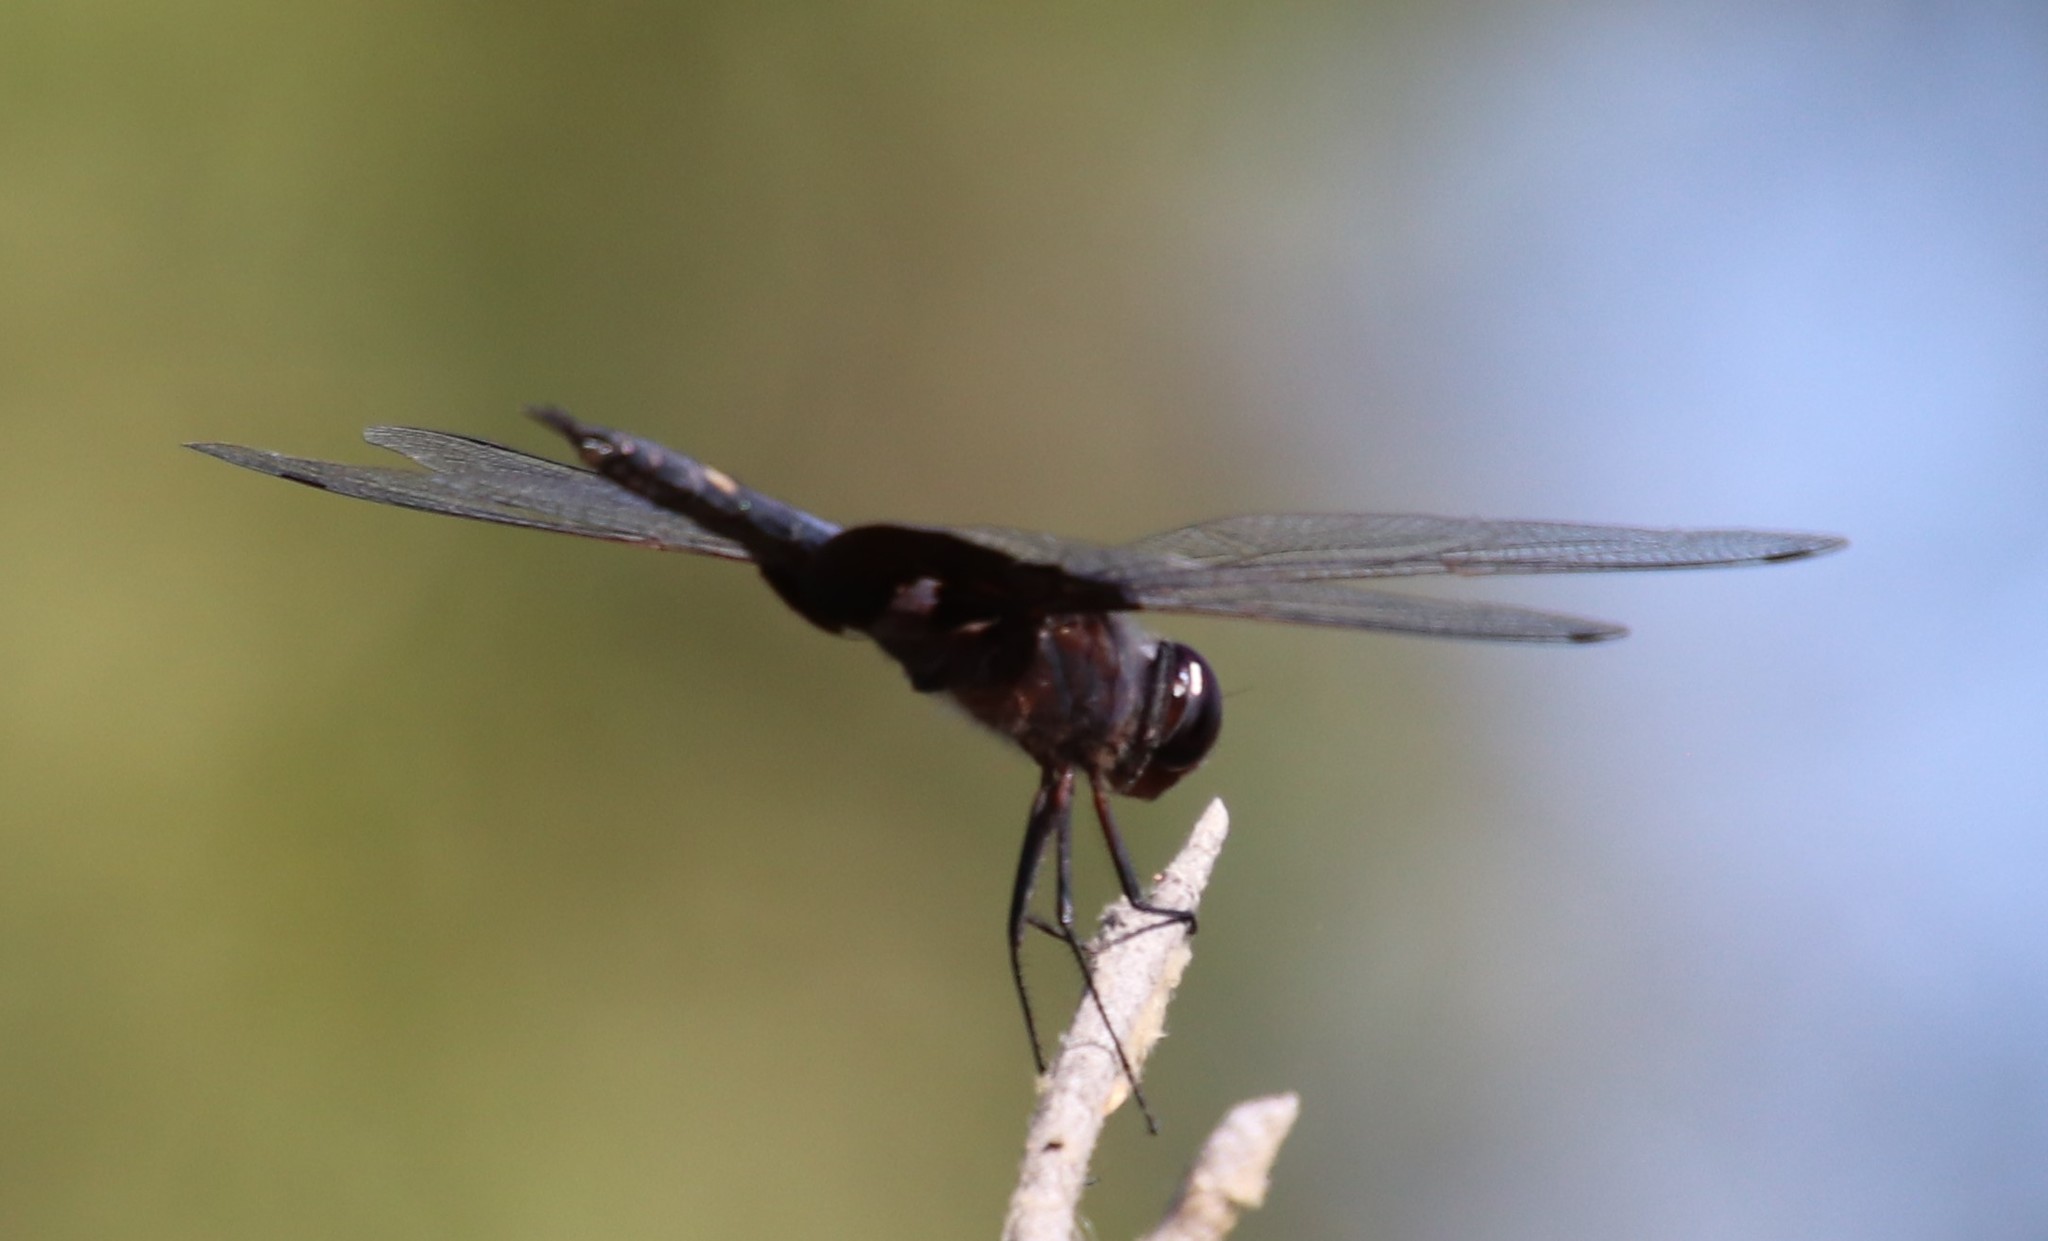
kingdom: Animalia
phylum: Arthropoda
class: Insecta
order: Odonata
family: Libellulidae
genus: Tramea
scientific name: Tramea lacerata
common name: Black saddlebags
